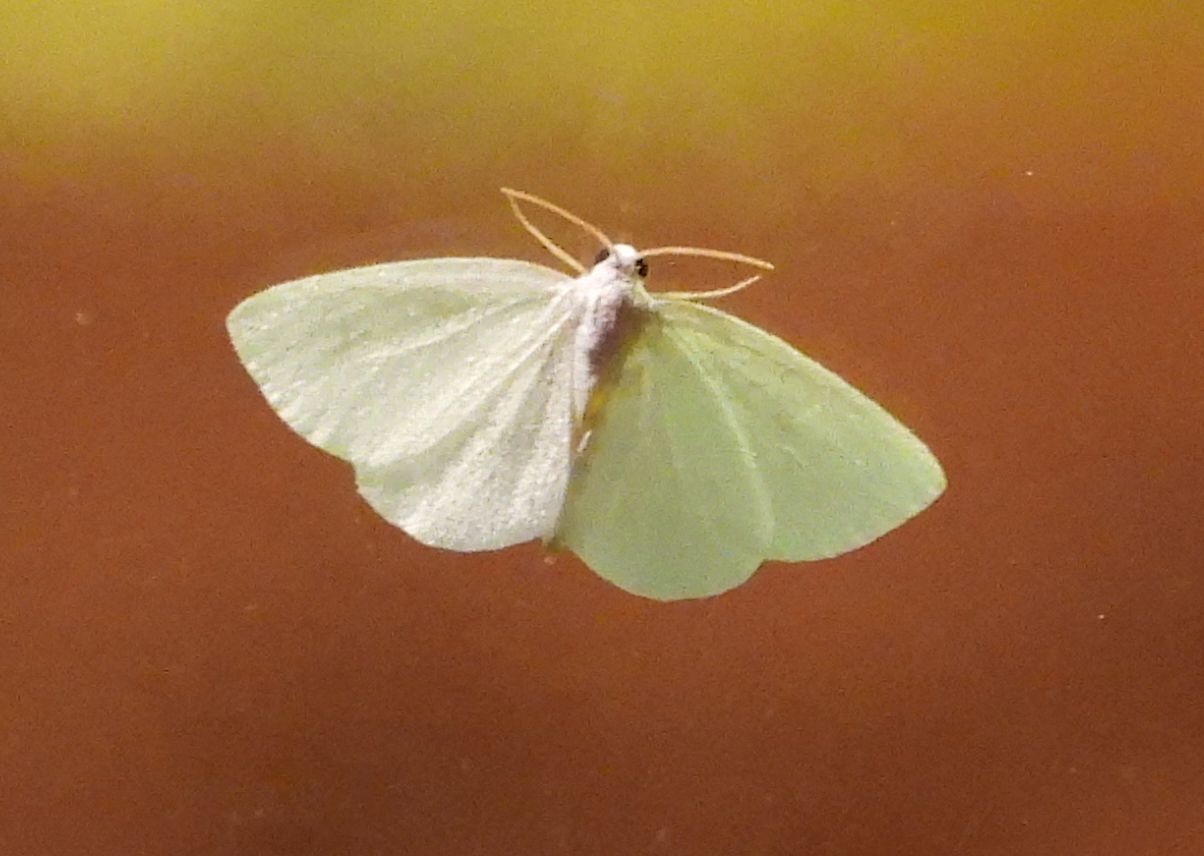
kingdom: Animalia
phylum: Arthropoda
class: Insecta
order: Lepidoptera
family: Geometridae
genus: Lomographa
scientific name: Lomographa vestaliata
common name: White spring moth
